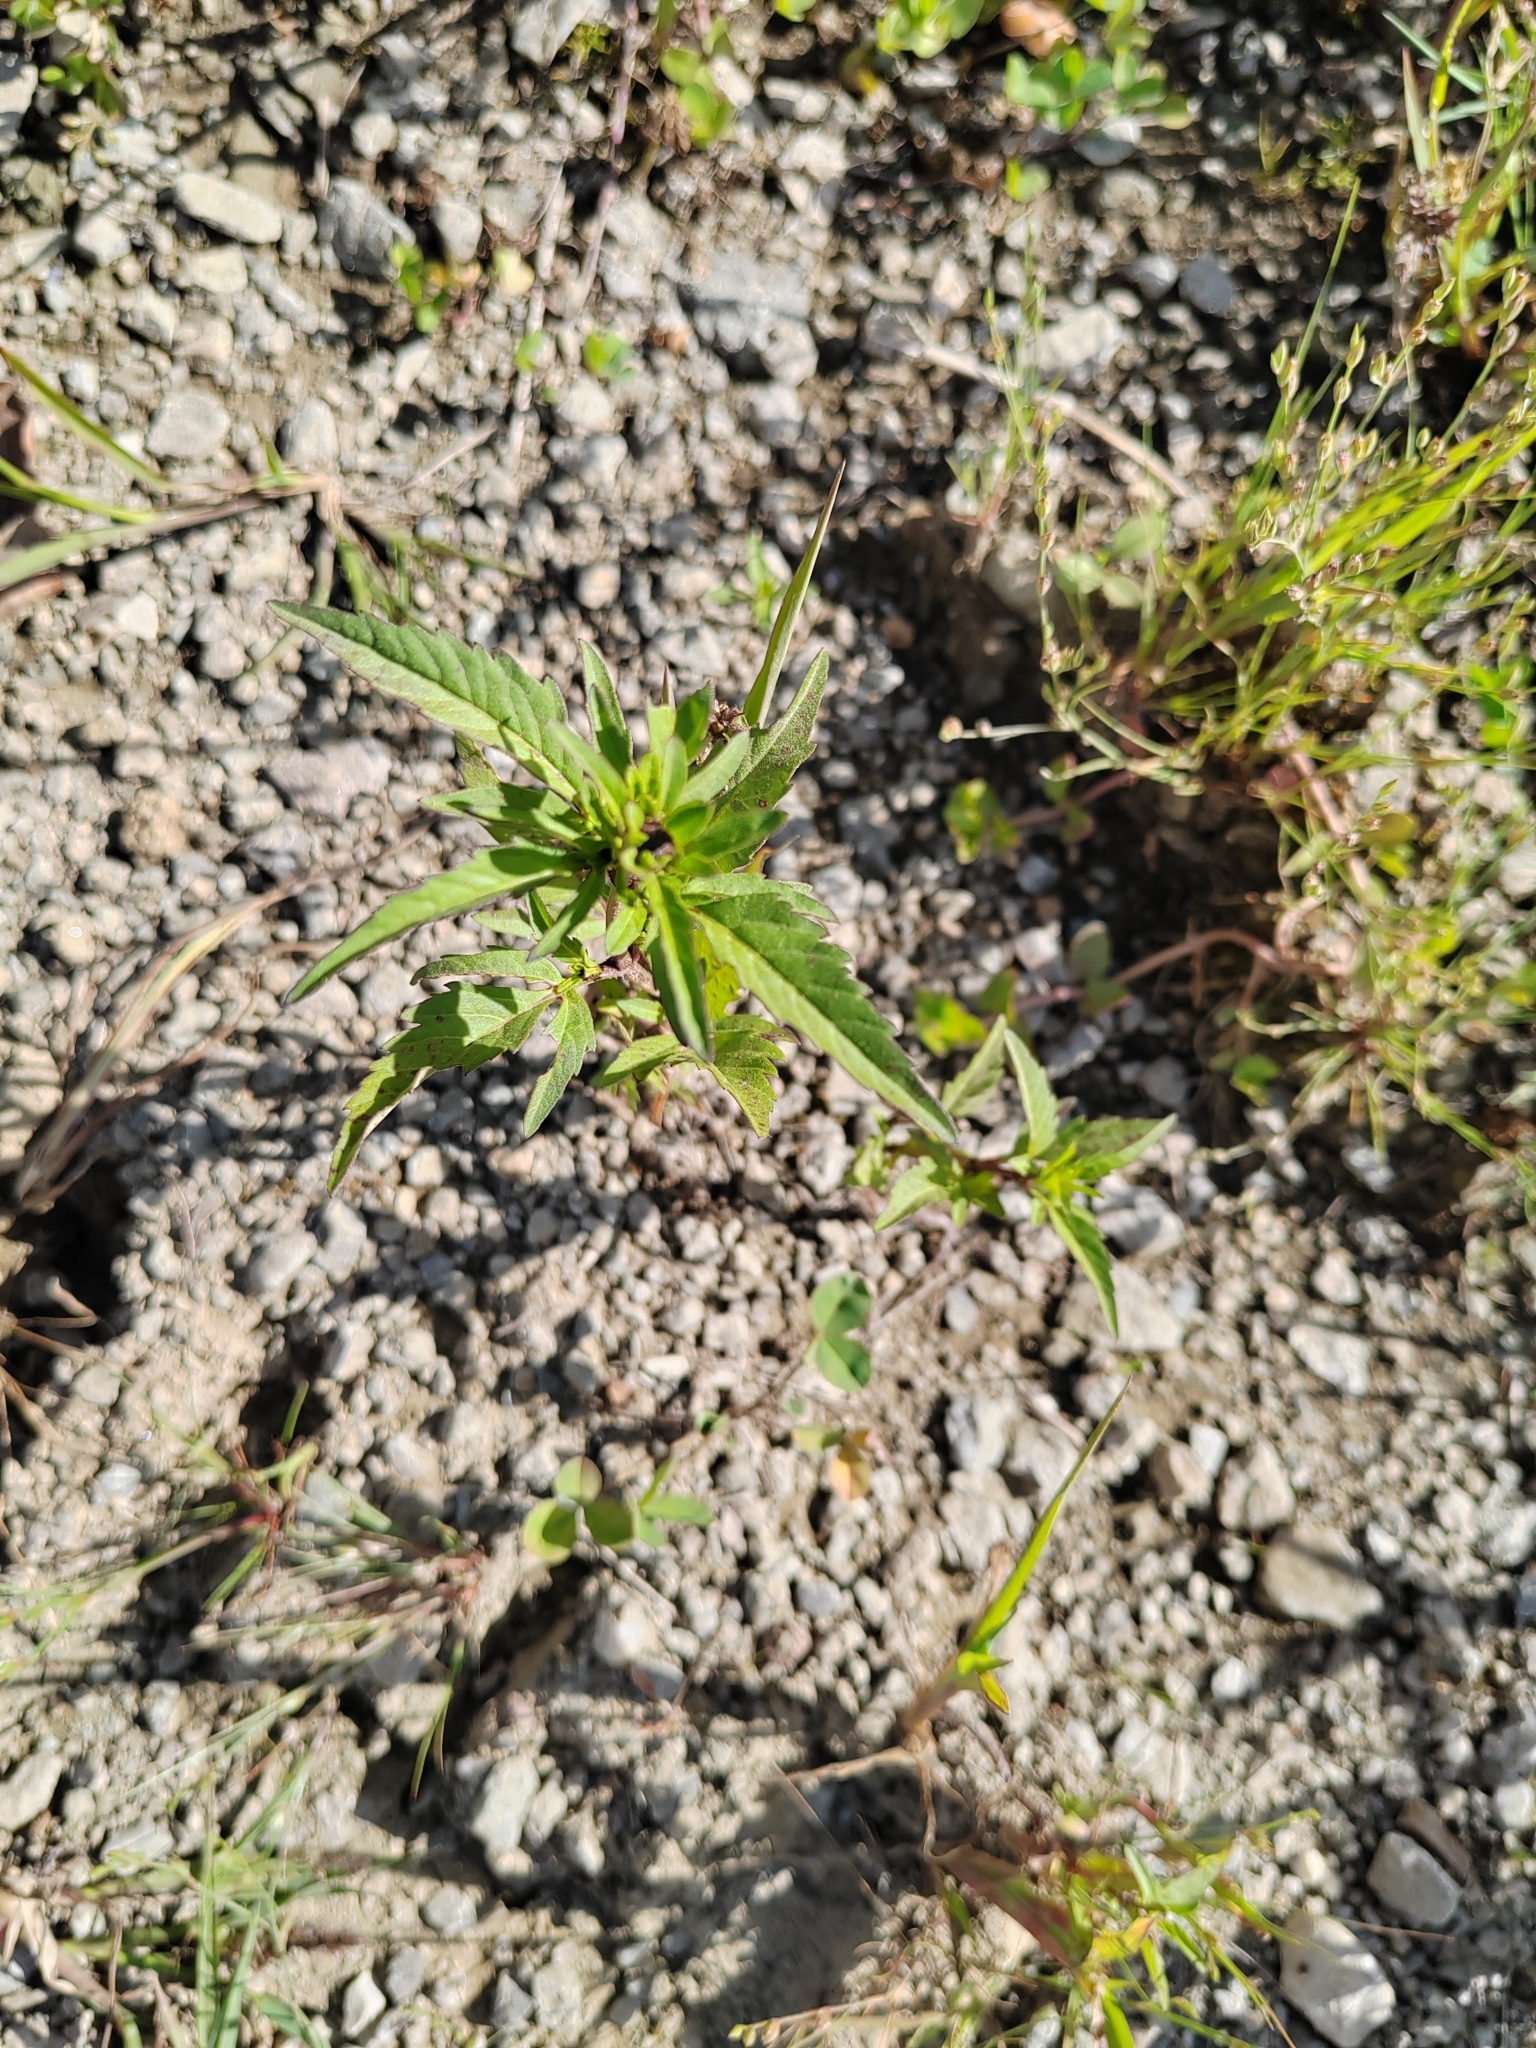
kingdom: Plantae
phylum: Tracheophyta
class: Magnoliopsida
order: Asterales
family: Asteraceae
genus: Bidens
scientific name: Bidens tripartita
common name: Trifid bur-marigold
